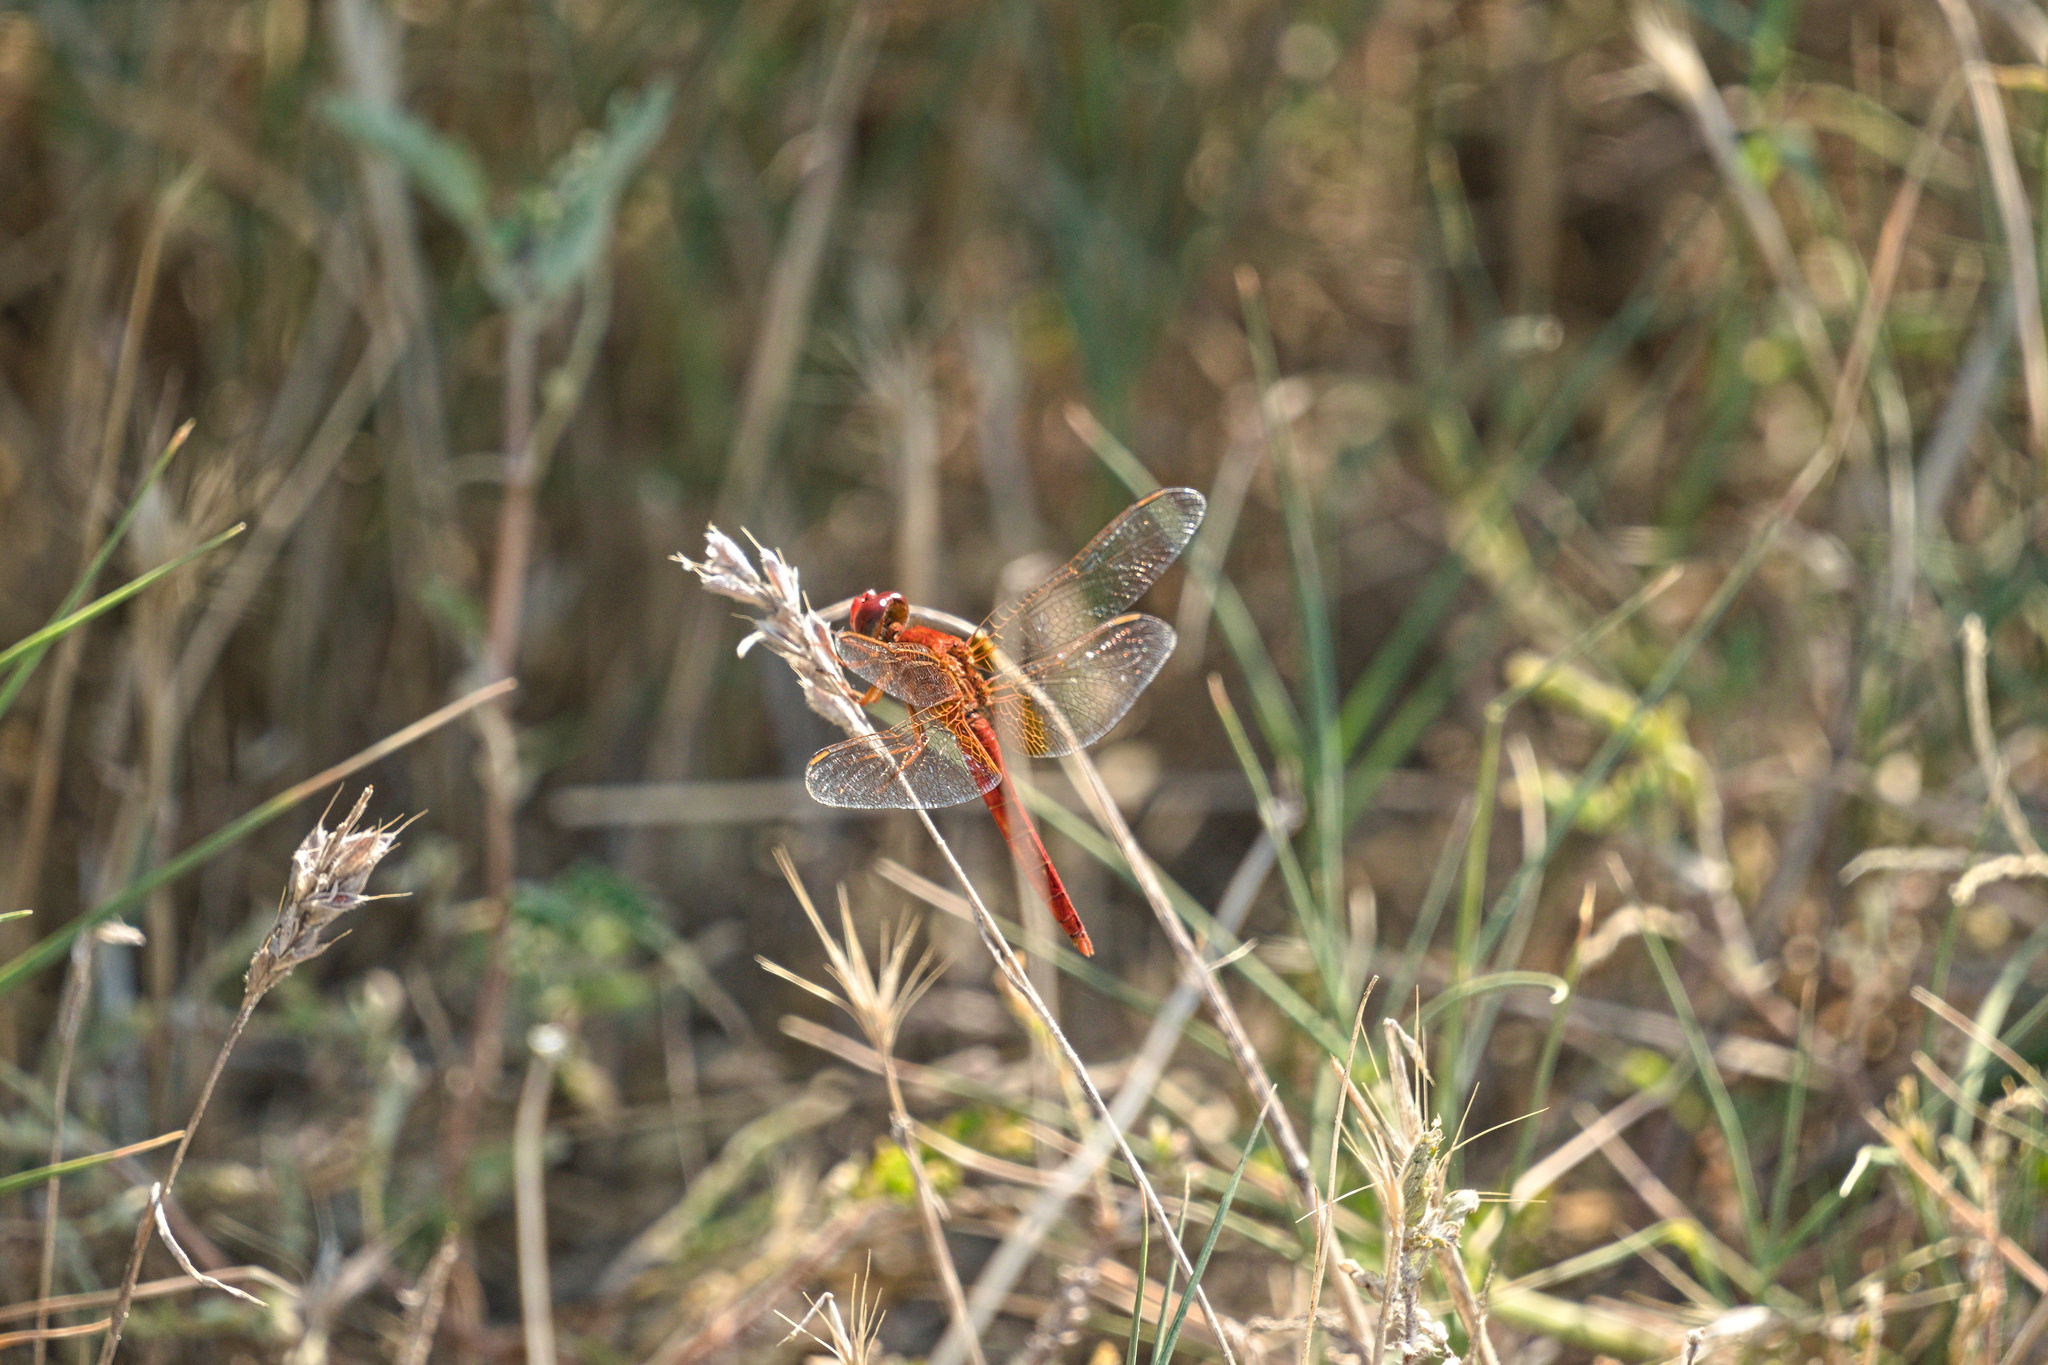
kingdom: Animalia
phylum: Arthropoda
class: Insecta
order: Odonata
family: Libellulidae
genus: Crocothemis
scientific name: Crocothemis erythraea
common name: Scarlet dragonfly
